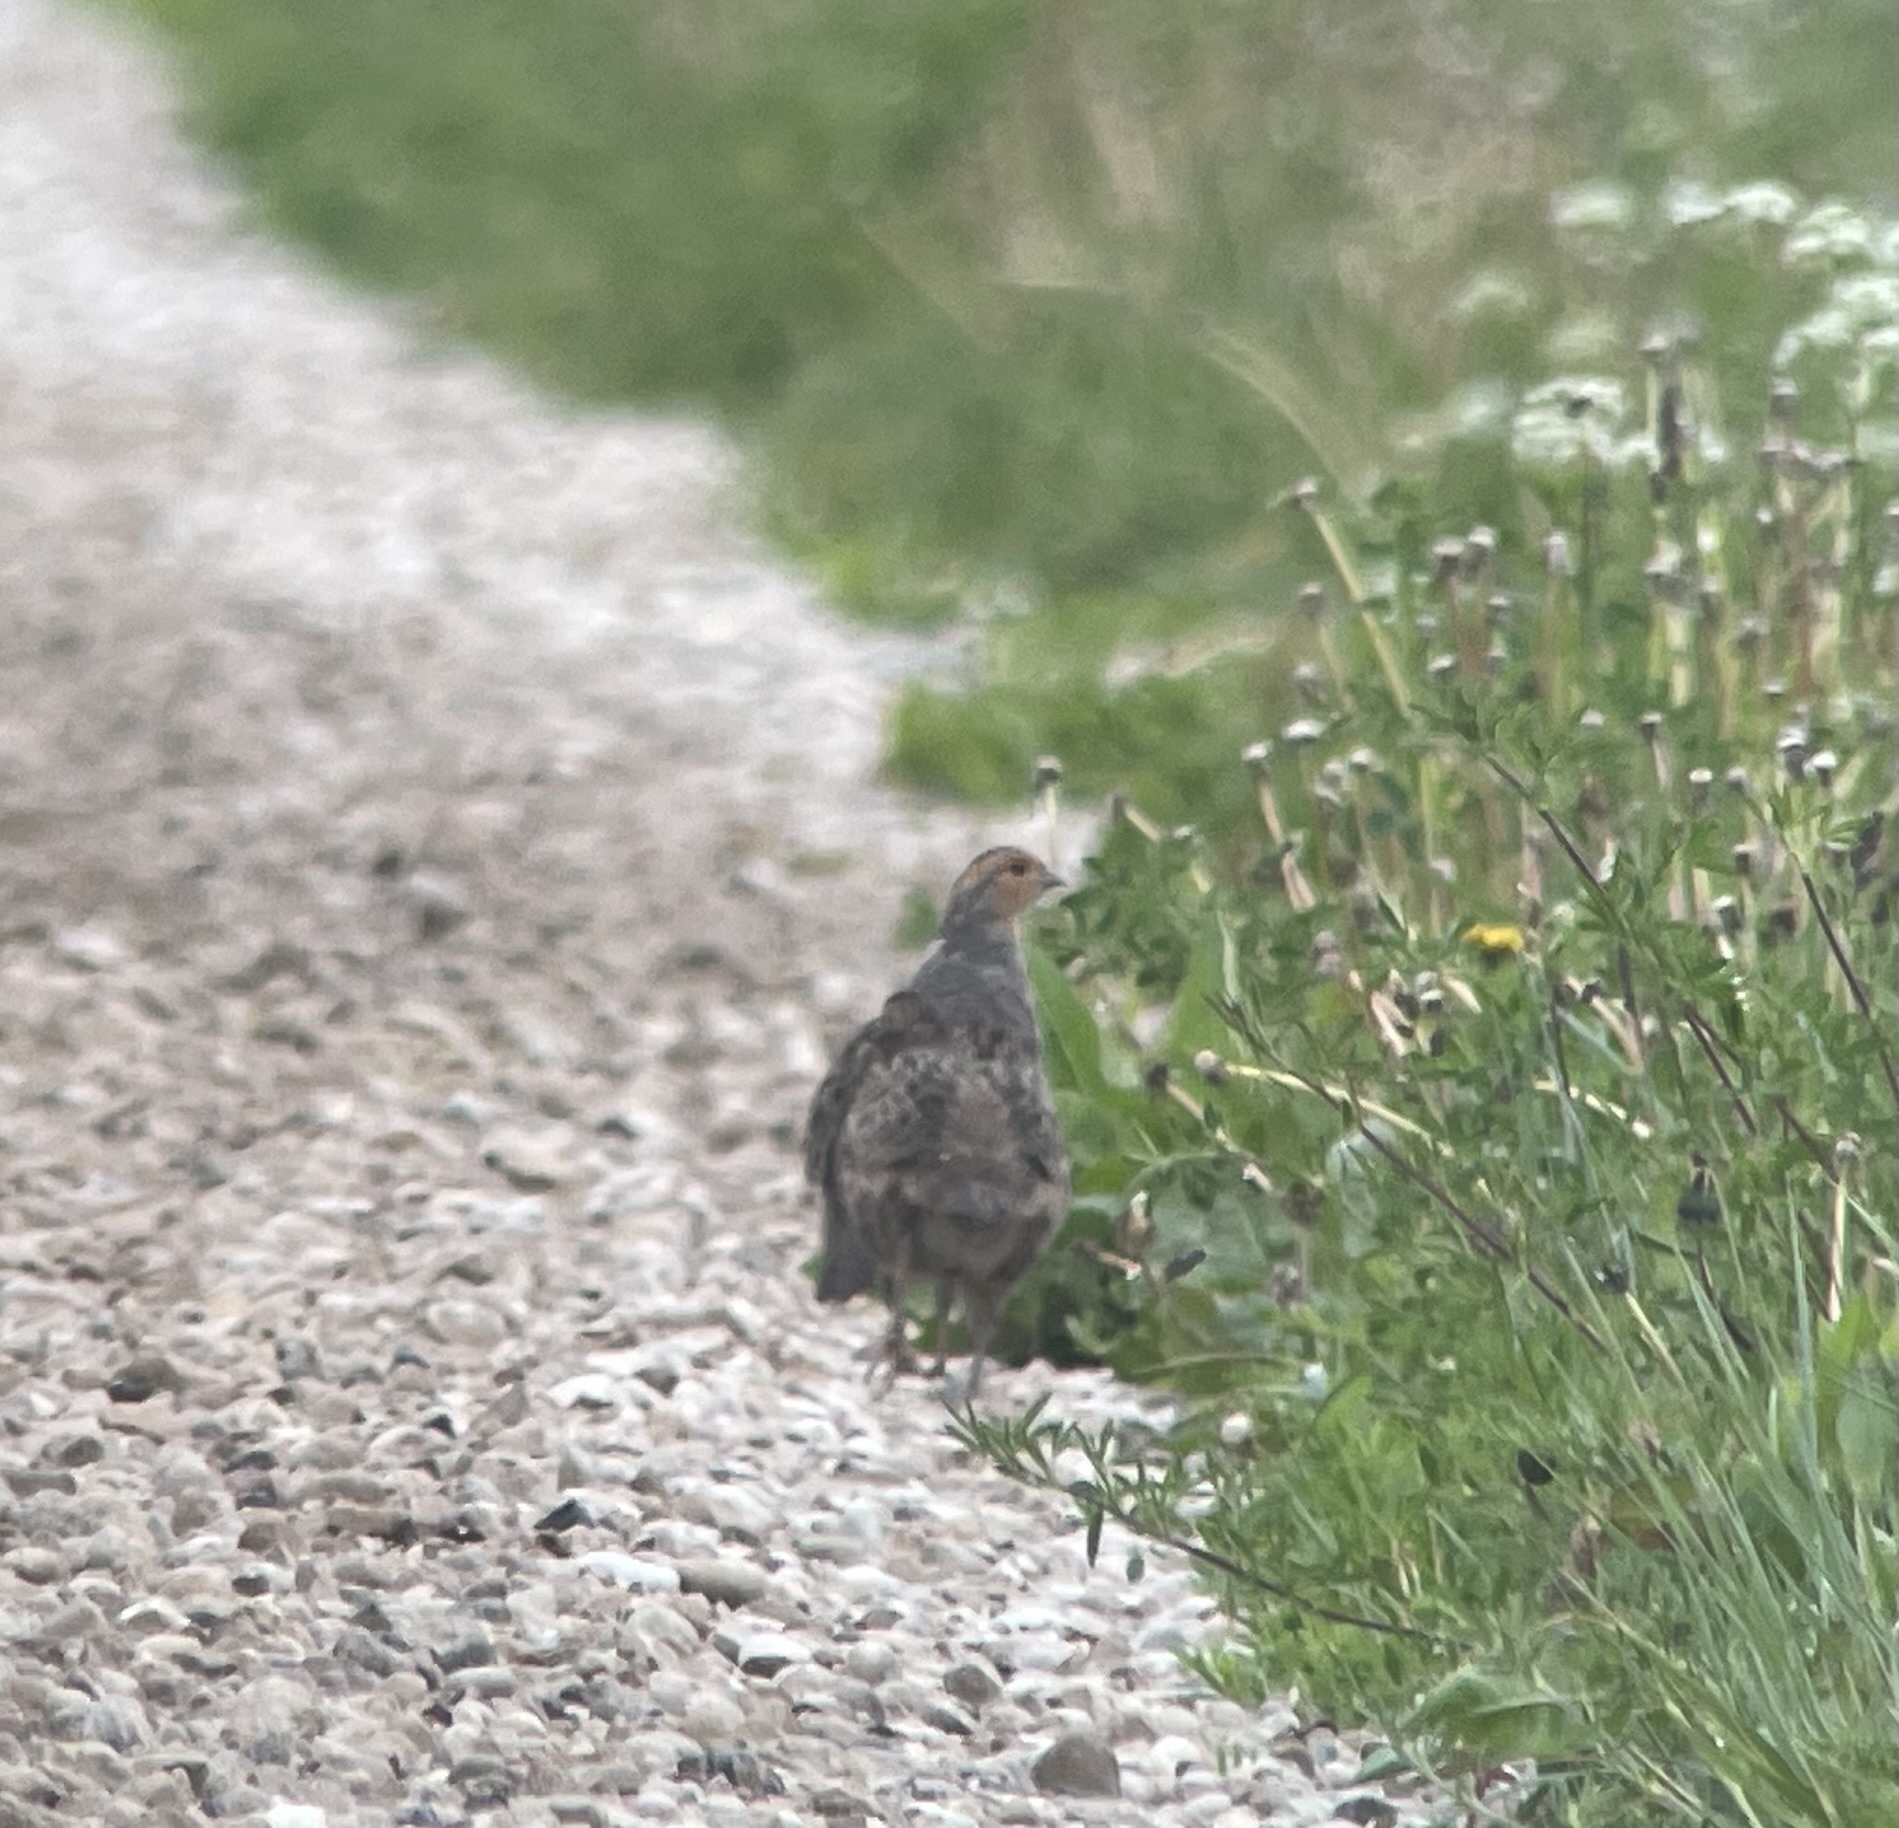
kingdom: Animalia
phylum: Chordata
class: Aves
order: Galliformes
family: Phasianidae
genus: Perdix
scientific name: Perdix perdix
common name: Grey partridge
